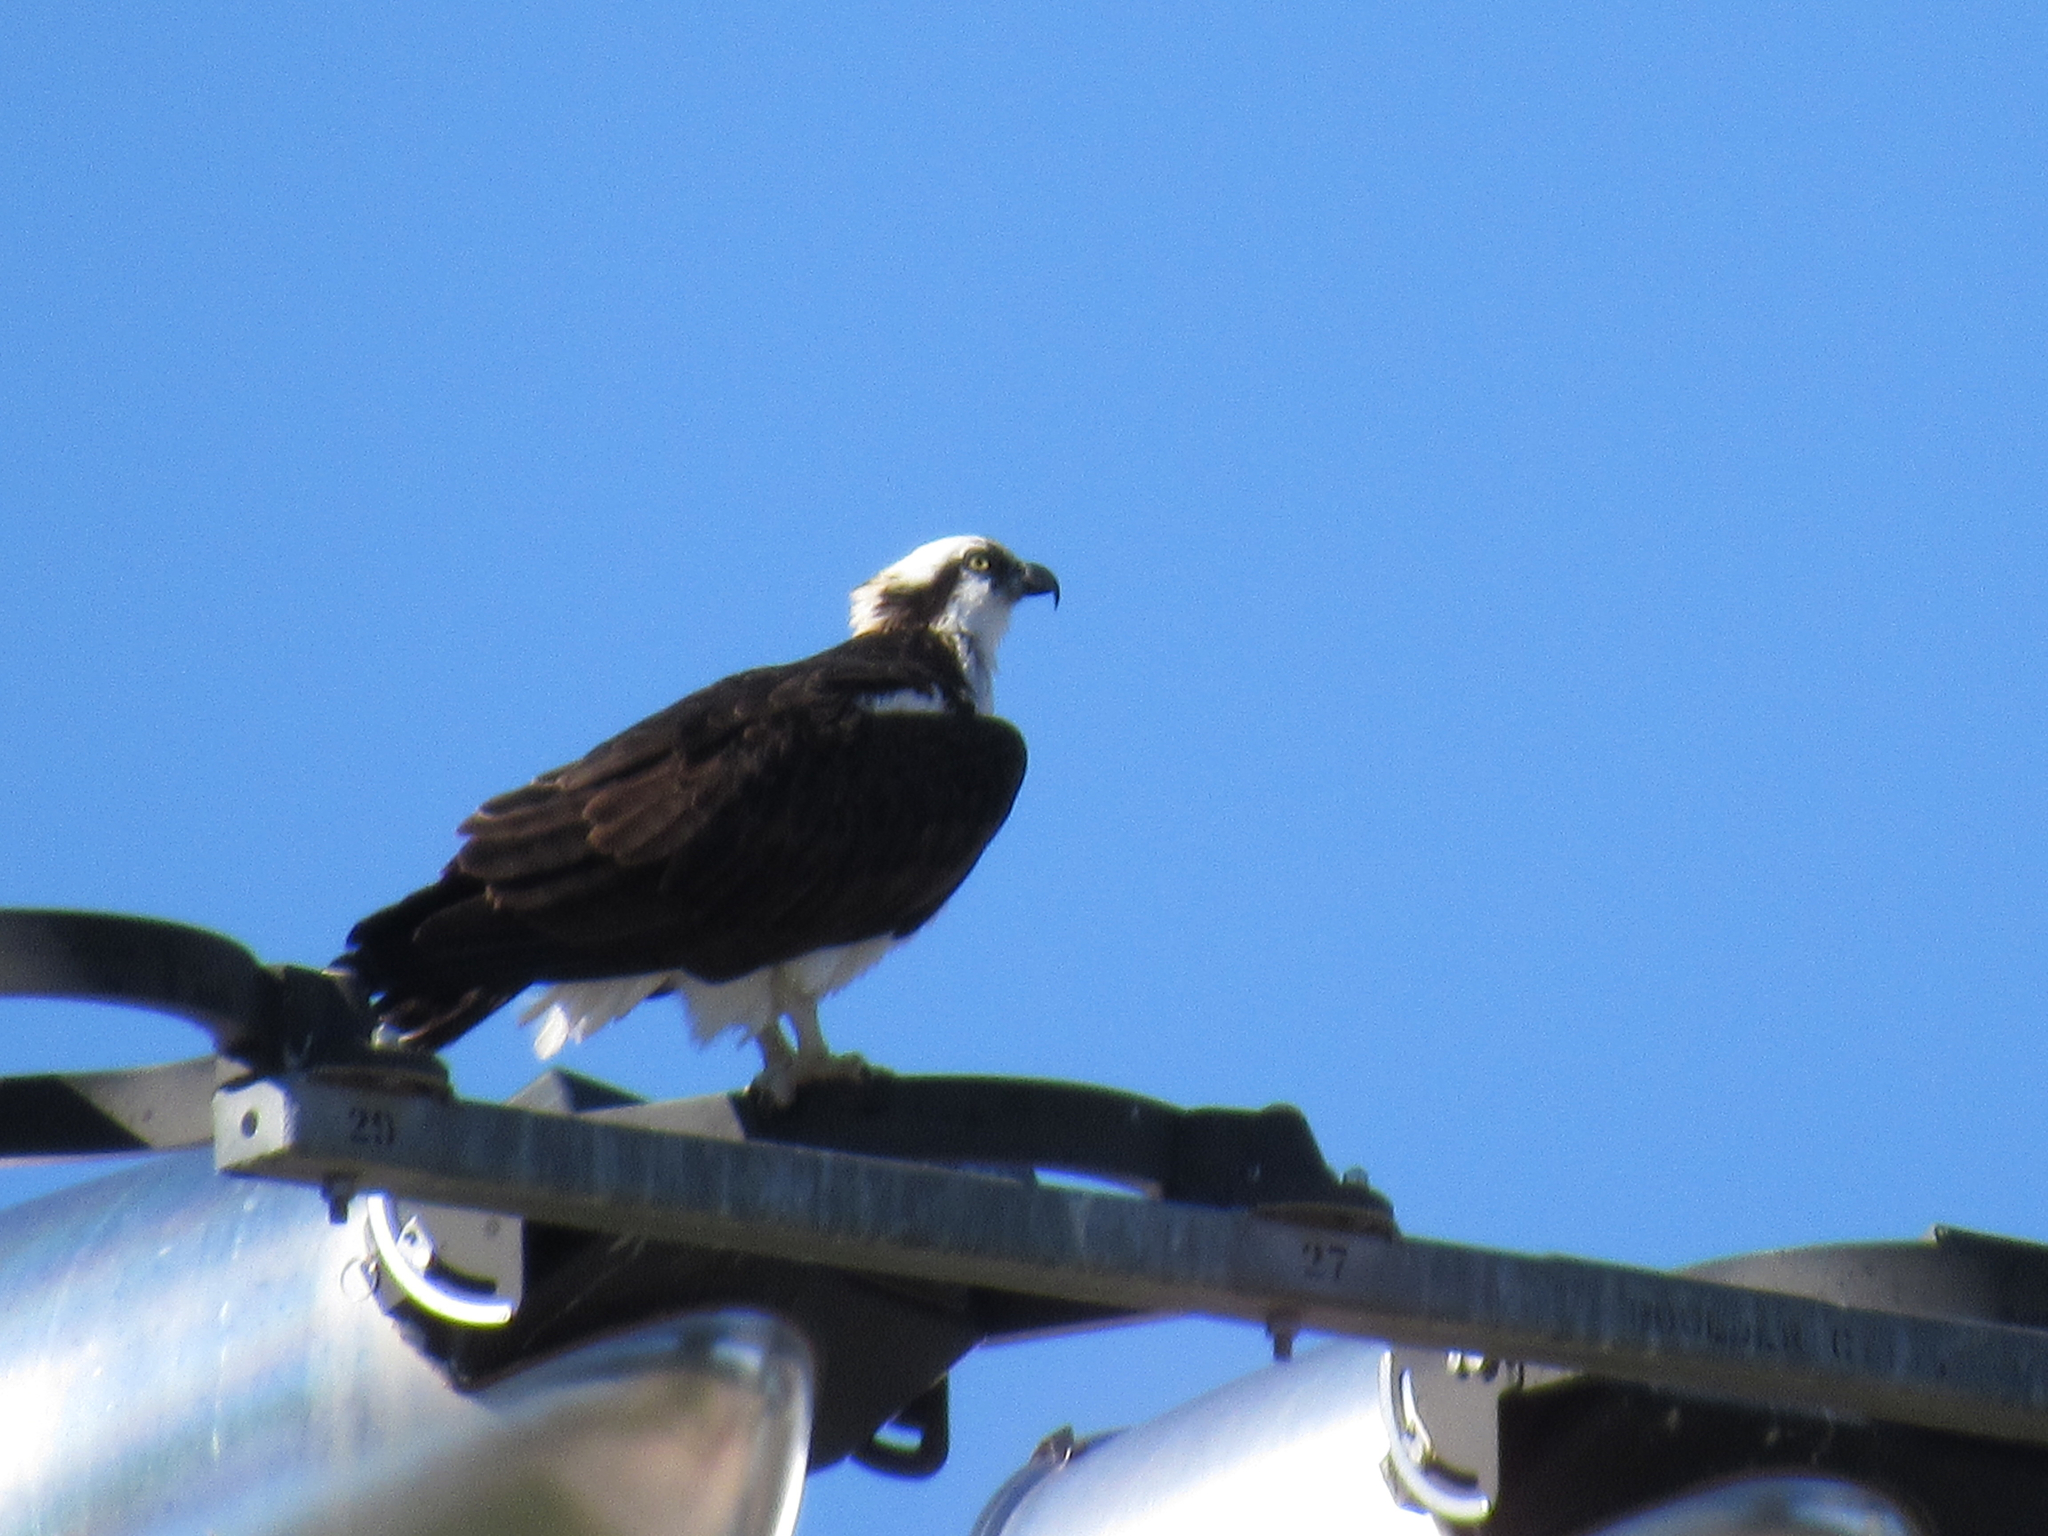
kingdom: Animalia
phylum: Chordata
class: Aves
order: Accipitriformes
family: Pandionidae
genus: Pandion
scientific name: Pandion haliaetus
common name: Osprey
